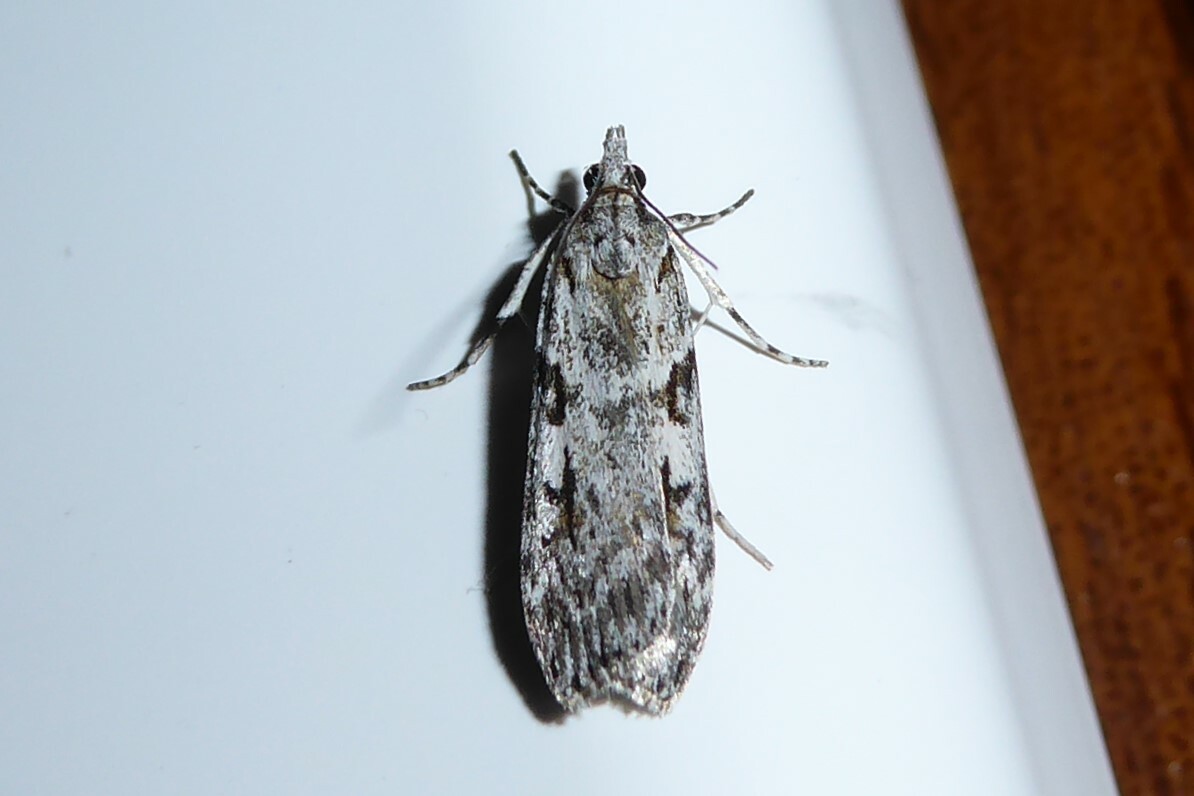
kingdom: Animalia
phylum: Arthropoda
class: Insecta
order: Lepidoptera
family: Crambidae
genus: Scoparia
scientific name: Scoparia halopis
